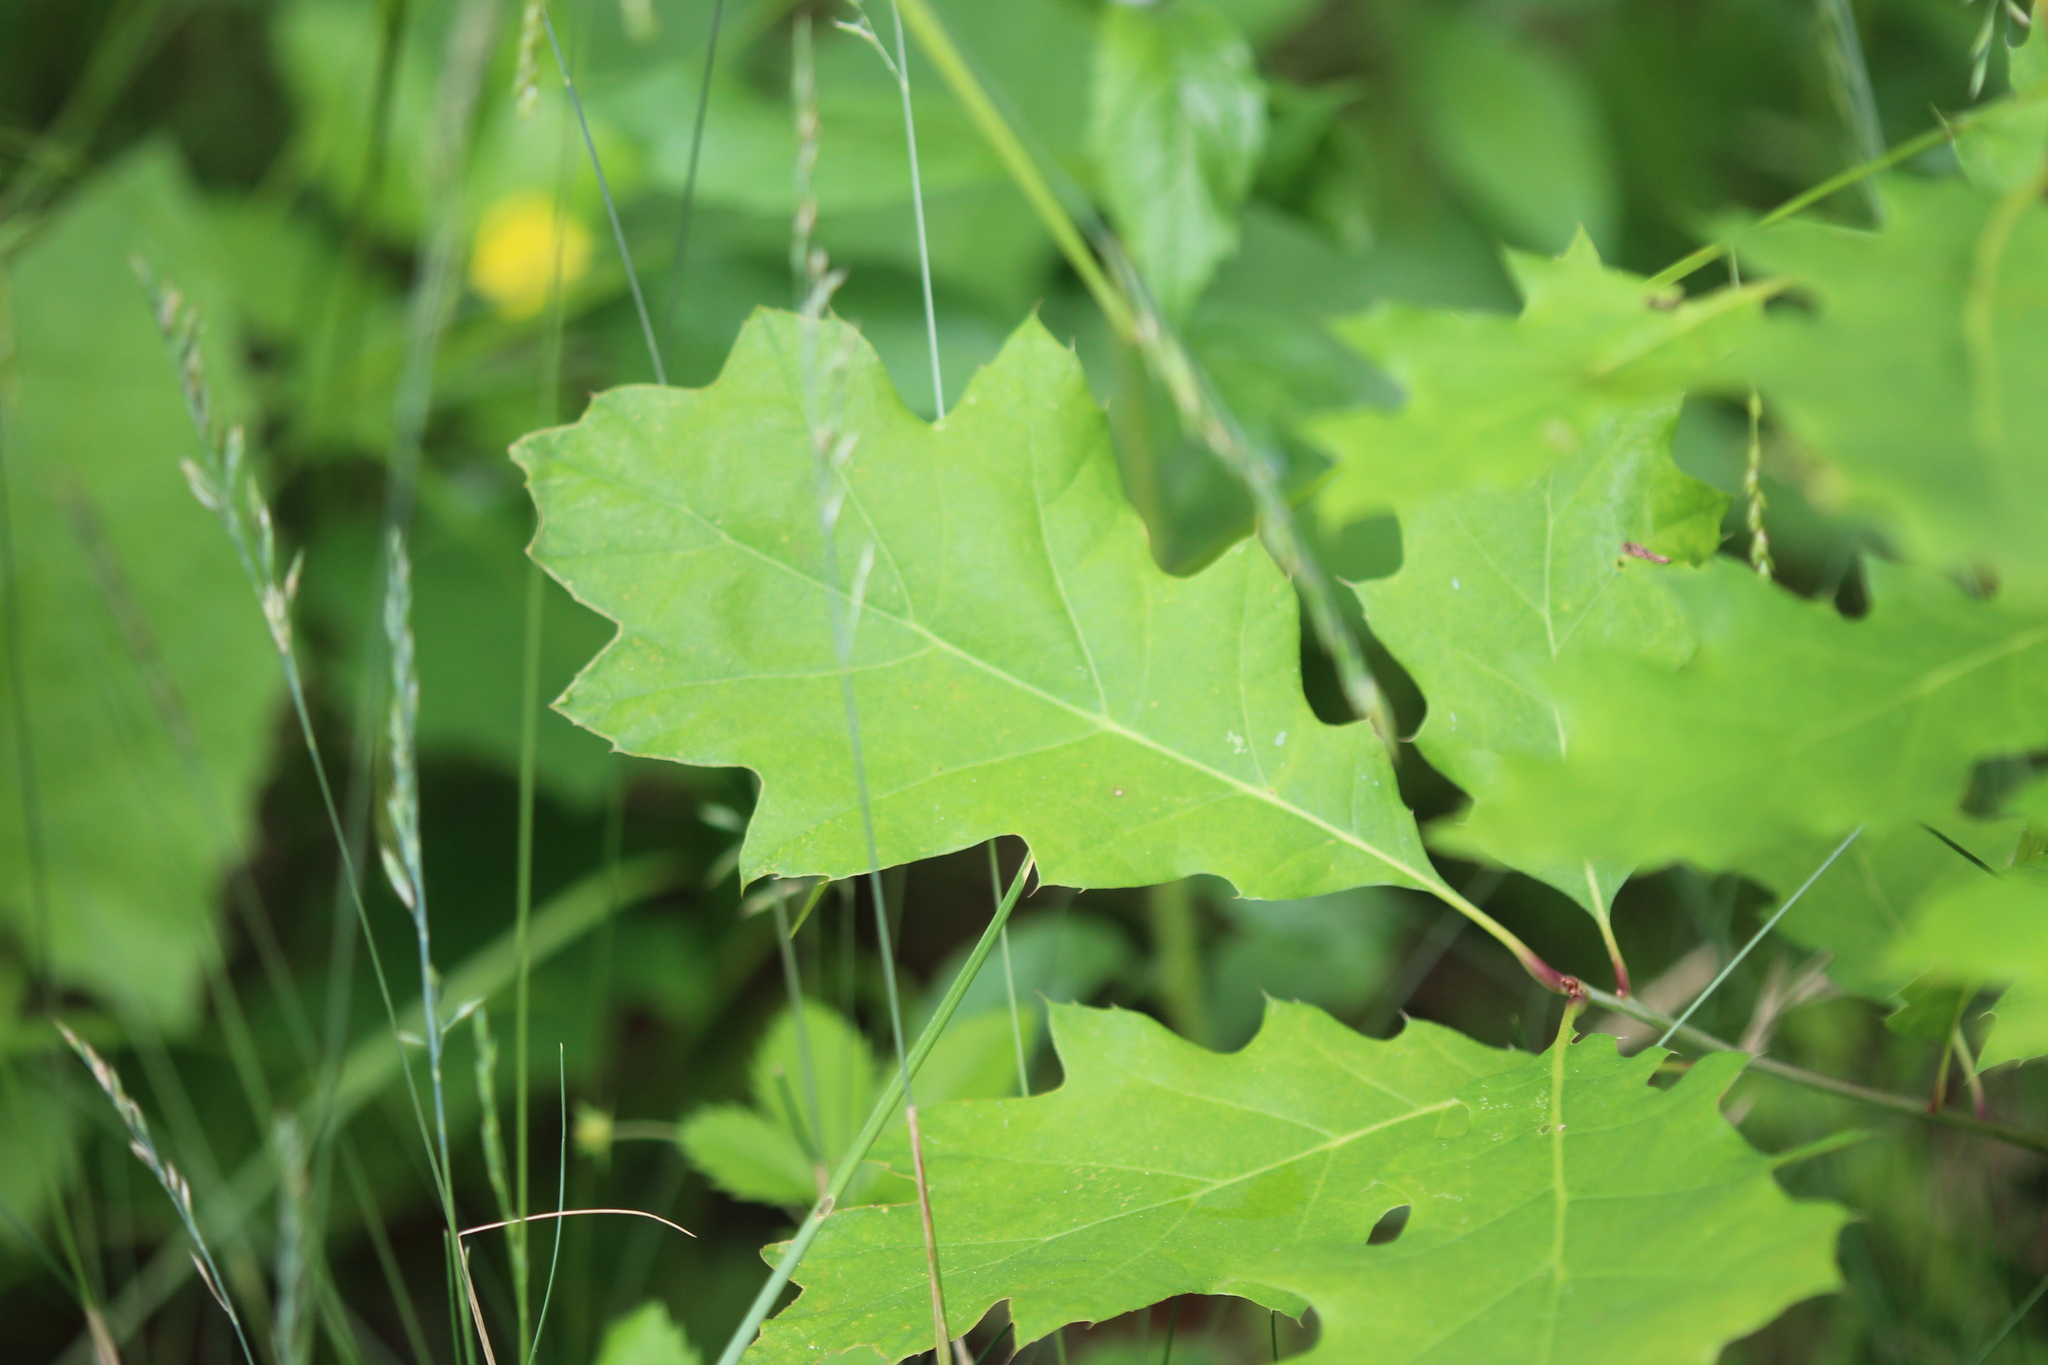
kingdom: Plantae
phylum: Tracheophyta
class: Magnoliopsida
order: Fagales
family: Fagaceae
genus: Quercus
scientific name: Quercus rubra
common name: Red oak
